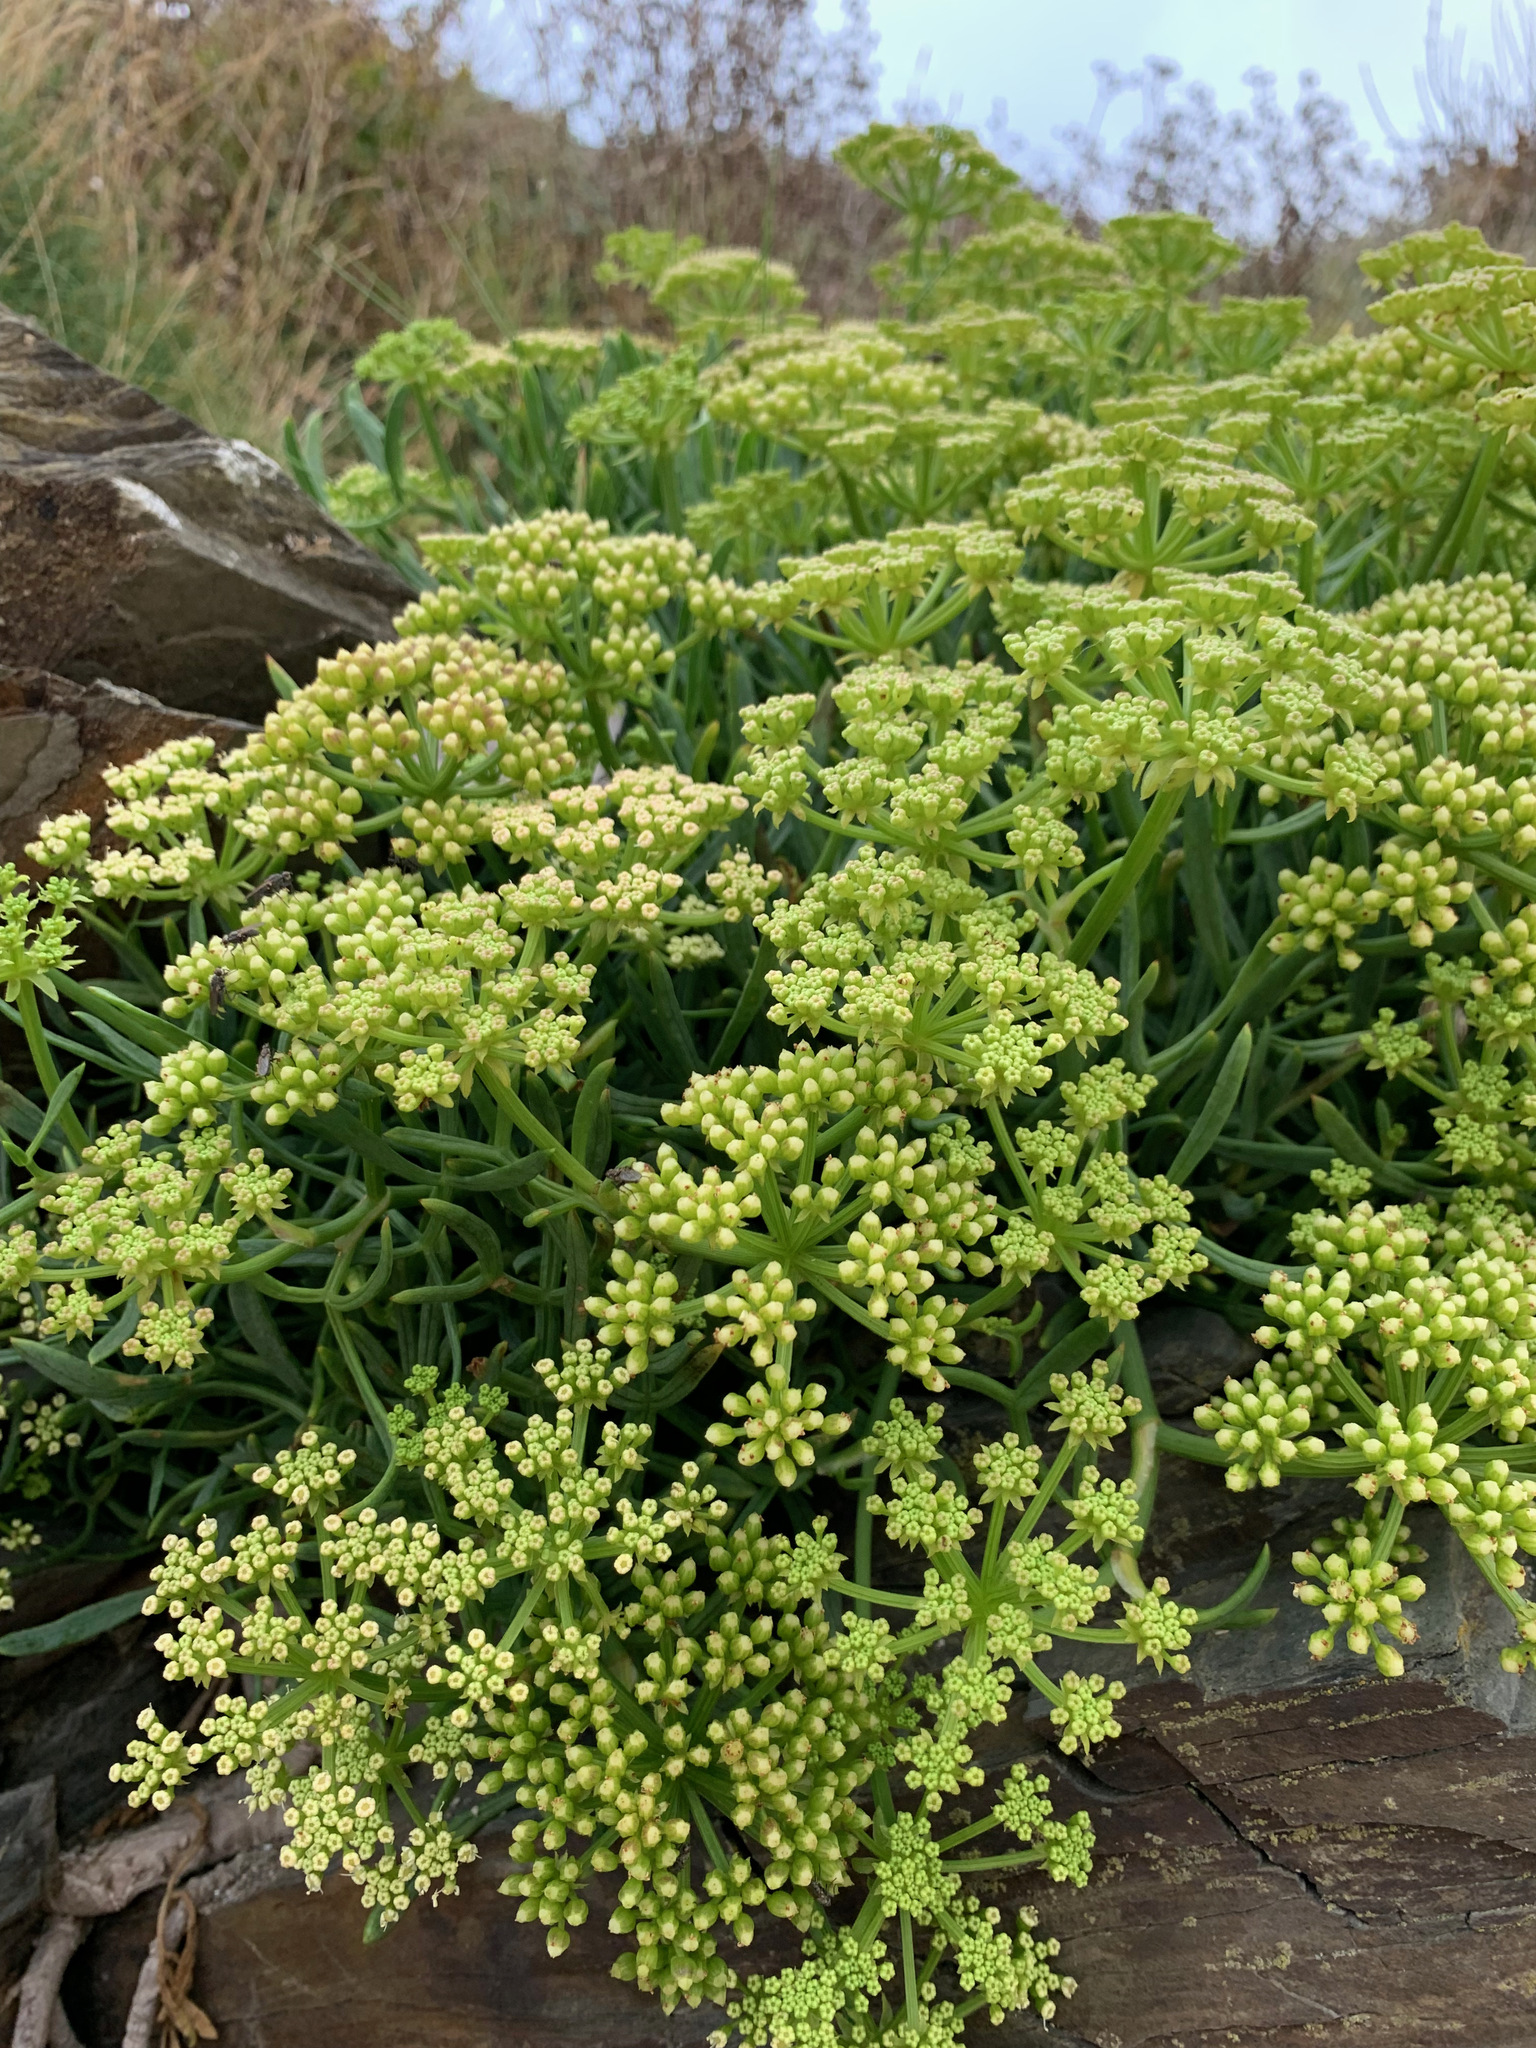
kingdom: Plantae
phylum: Tracheophyta
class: Magnoliopsida
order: Apiales
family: Apiaceae
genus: Crithmum
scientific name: Crithmum maritimum
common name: Rock samphire
